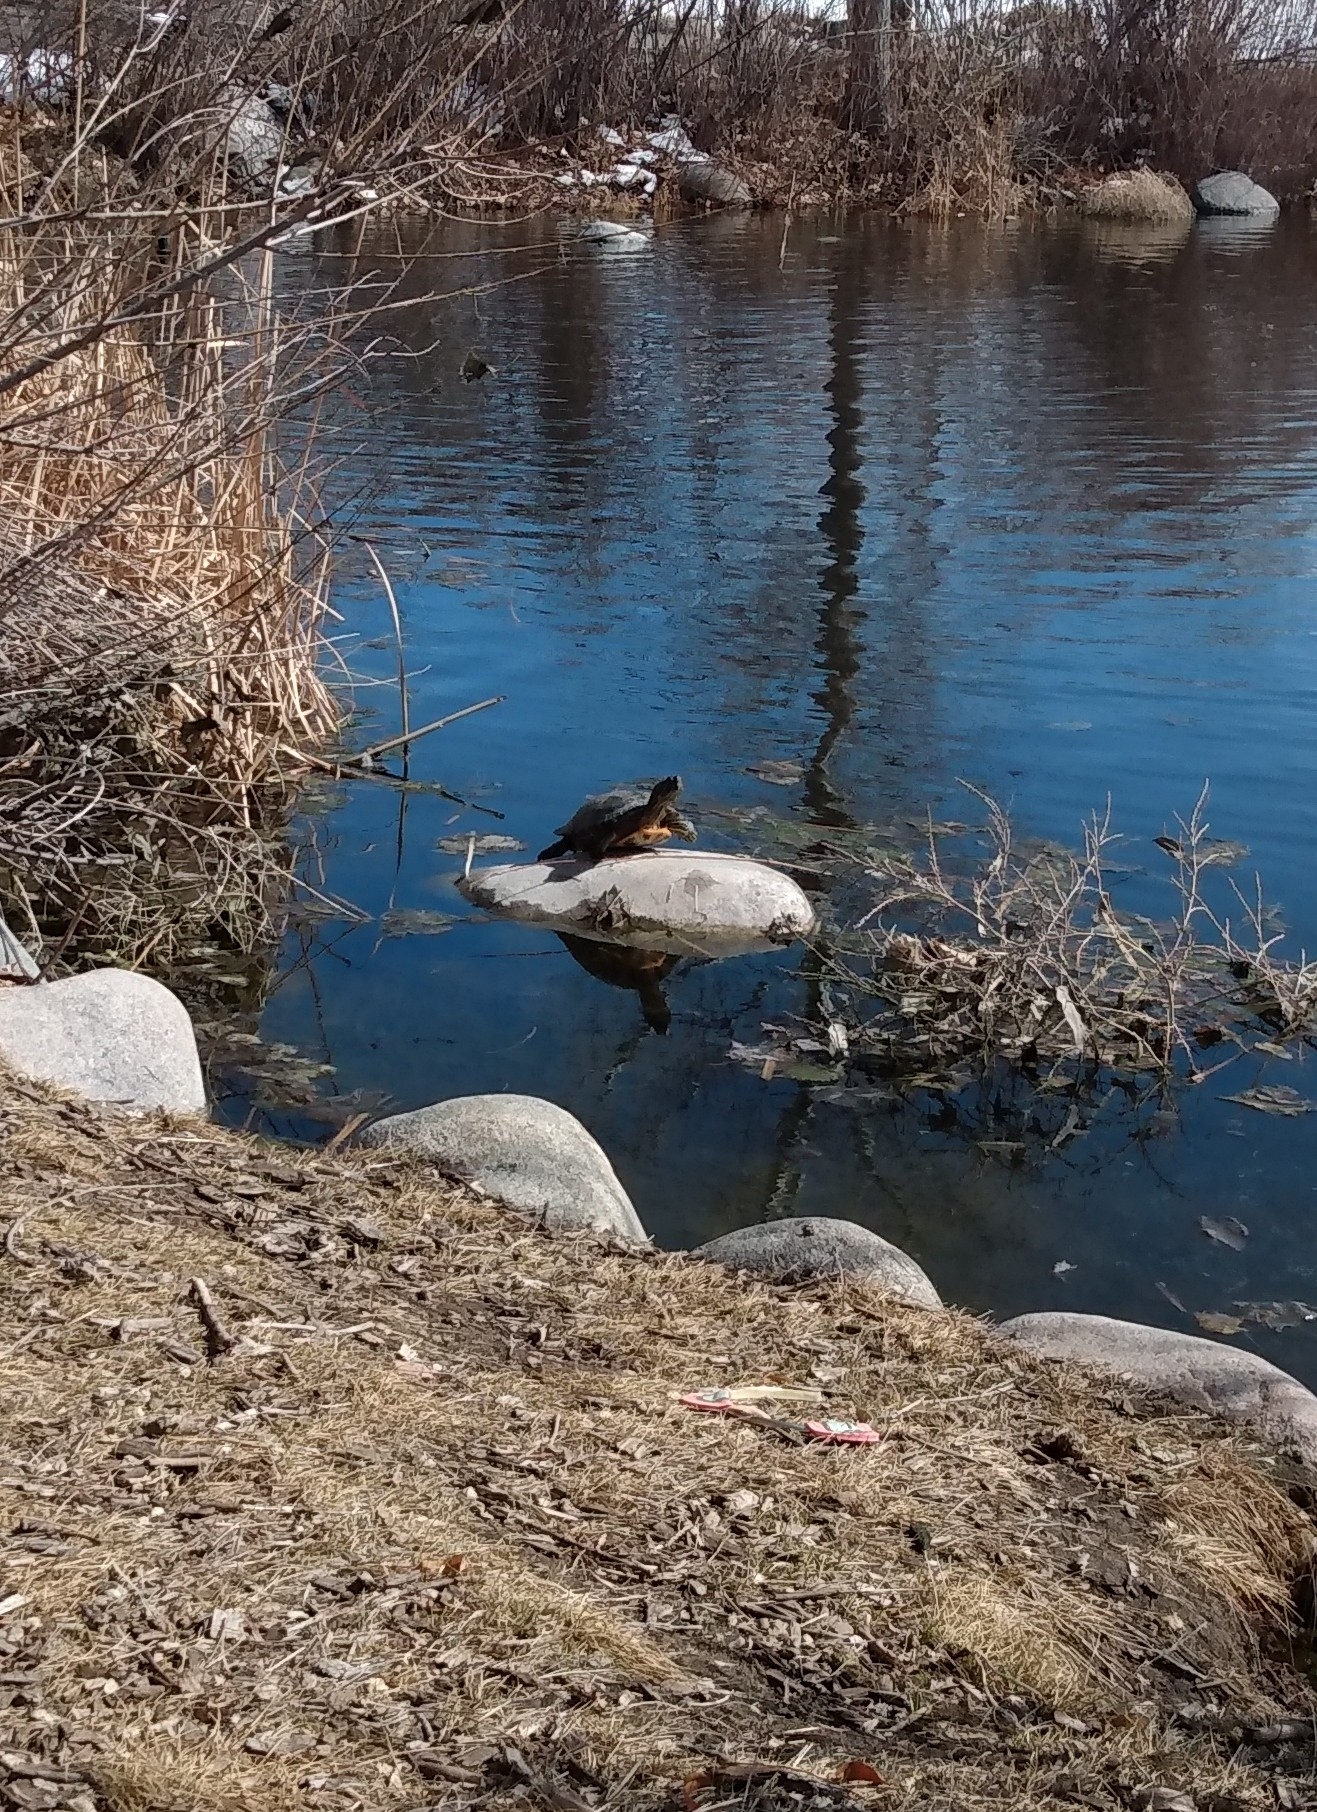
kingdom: Animalia
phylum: Chordata
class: Testudines
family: Emydidae
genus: Trachemys
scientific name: Trachemys scripta
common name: Slider
